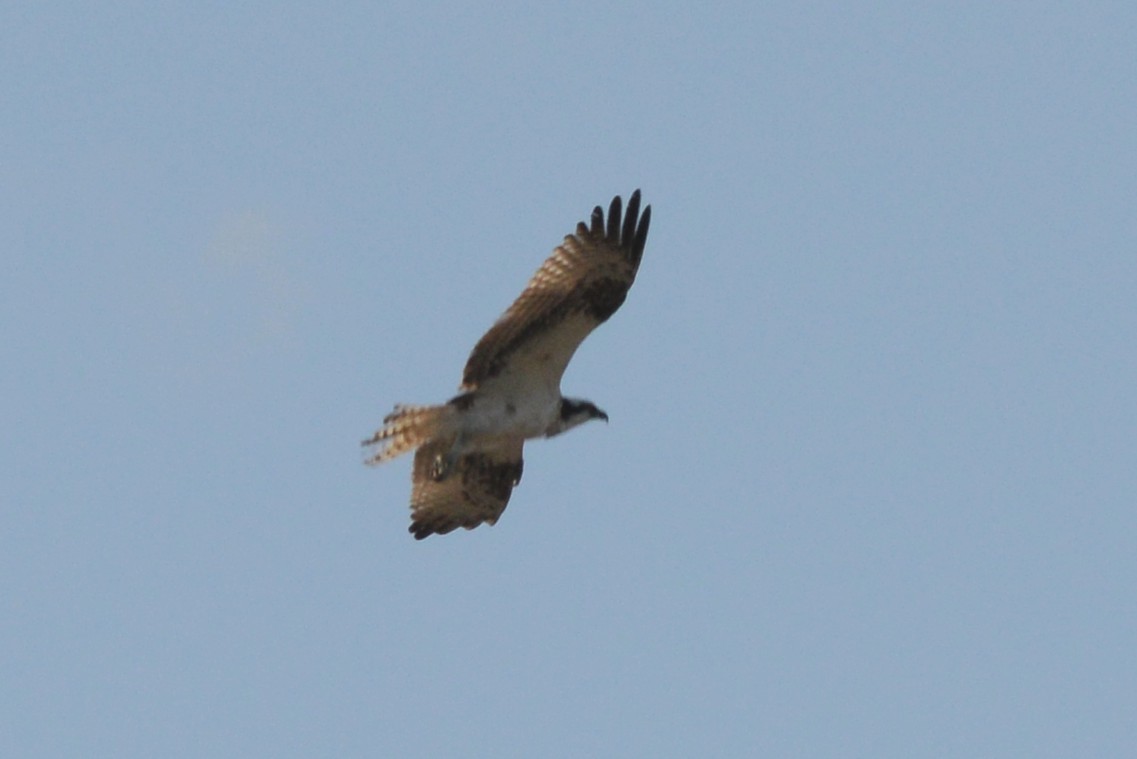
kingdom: Animalia
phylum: Chordata
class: Aves
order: Accipitriformes
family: Pandionidae
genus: Pandion
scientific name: Pandion haliaetus
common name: Osprey
